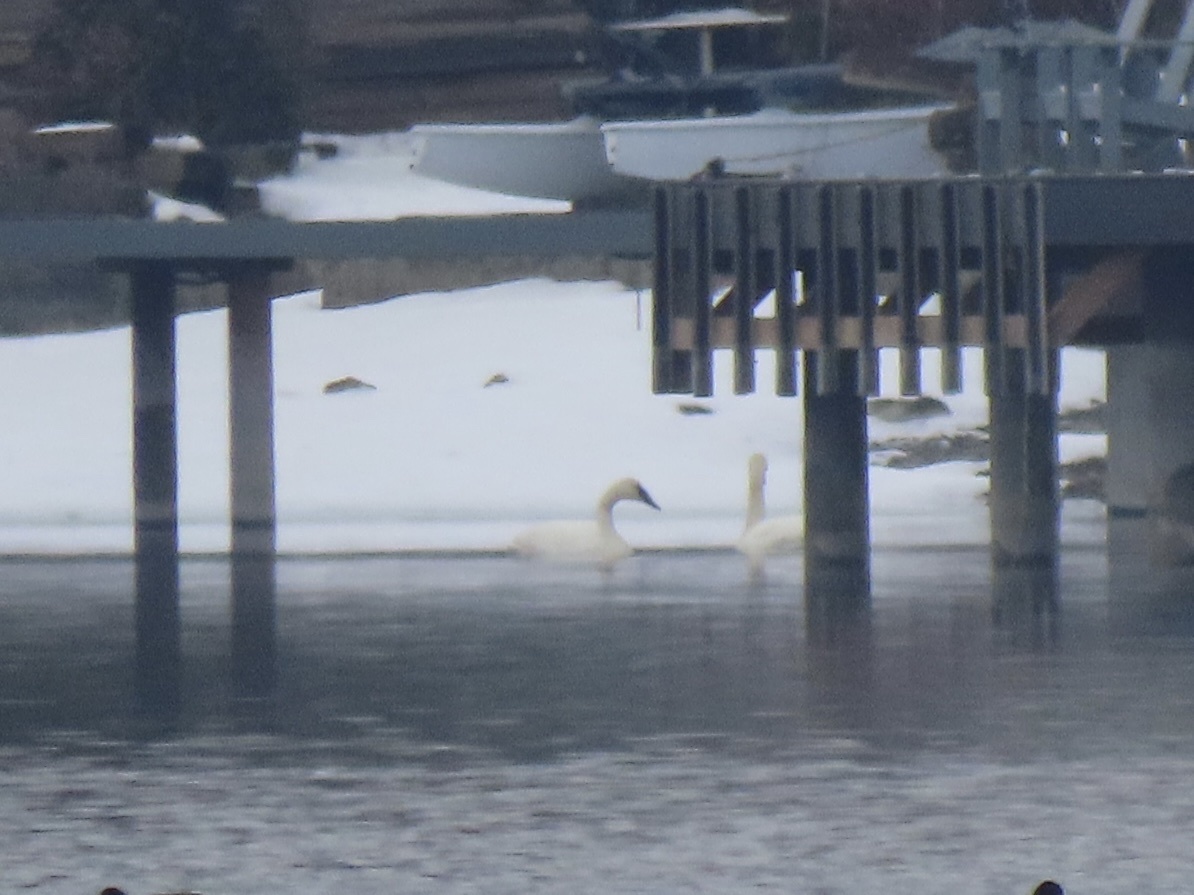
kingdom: Animalia
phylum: Chordata
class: Aves
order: Anseriformes
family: Anatidae
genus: Cygnus
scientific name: Cygnus buccinator
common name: Trumpeter swan
